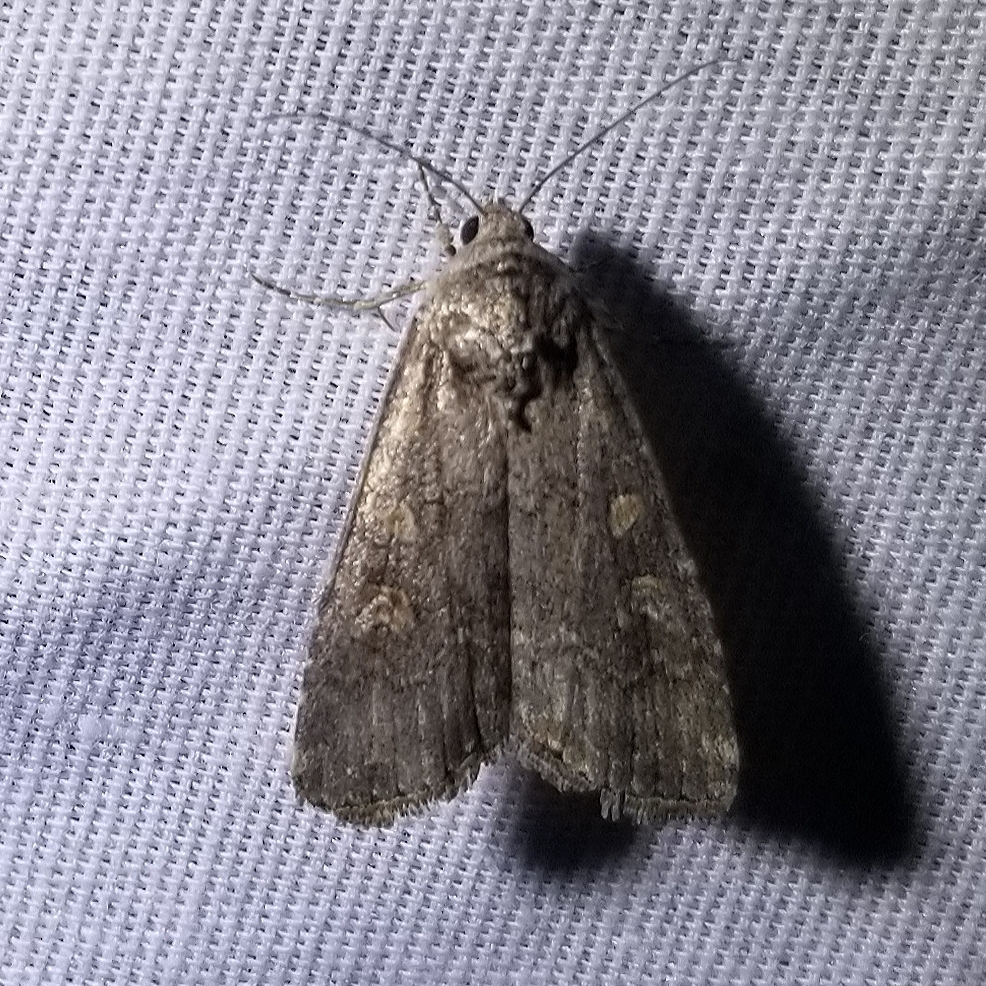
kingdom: Animalia
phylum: Arthropoda
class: Insecta
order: Lepidoptera
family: Noctuidae
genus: Spodoptera
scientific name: Spodoptera exigua
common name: Beet armyworm
